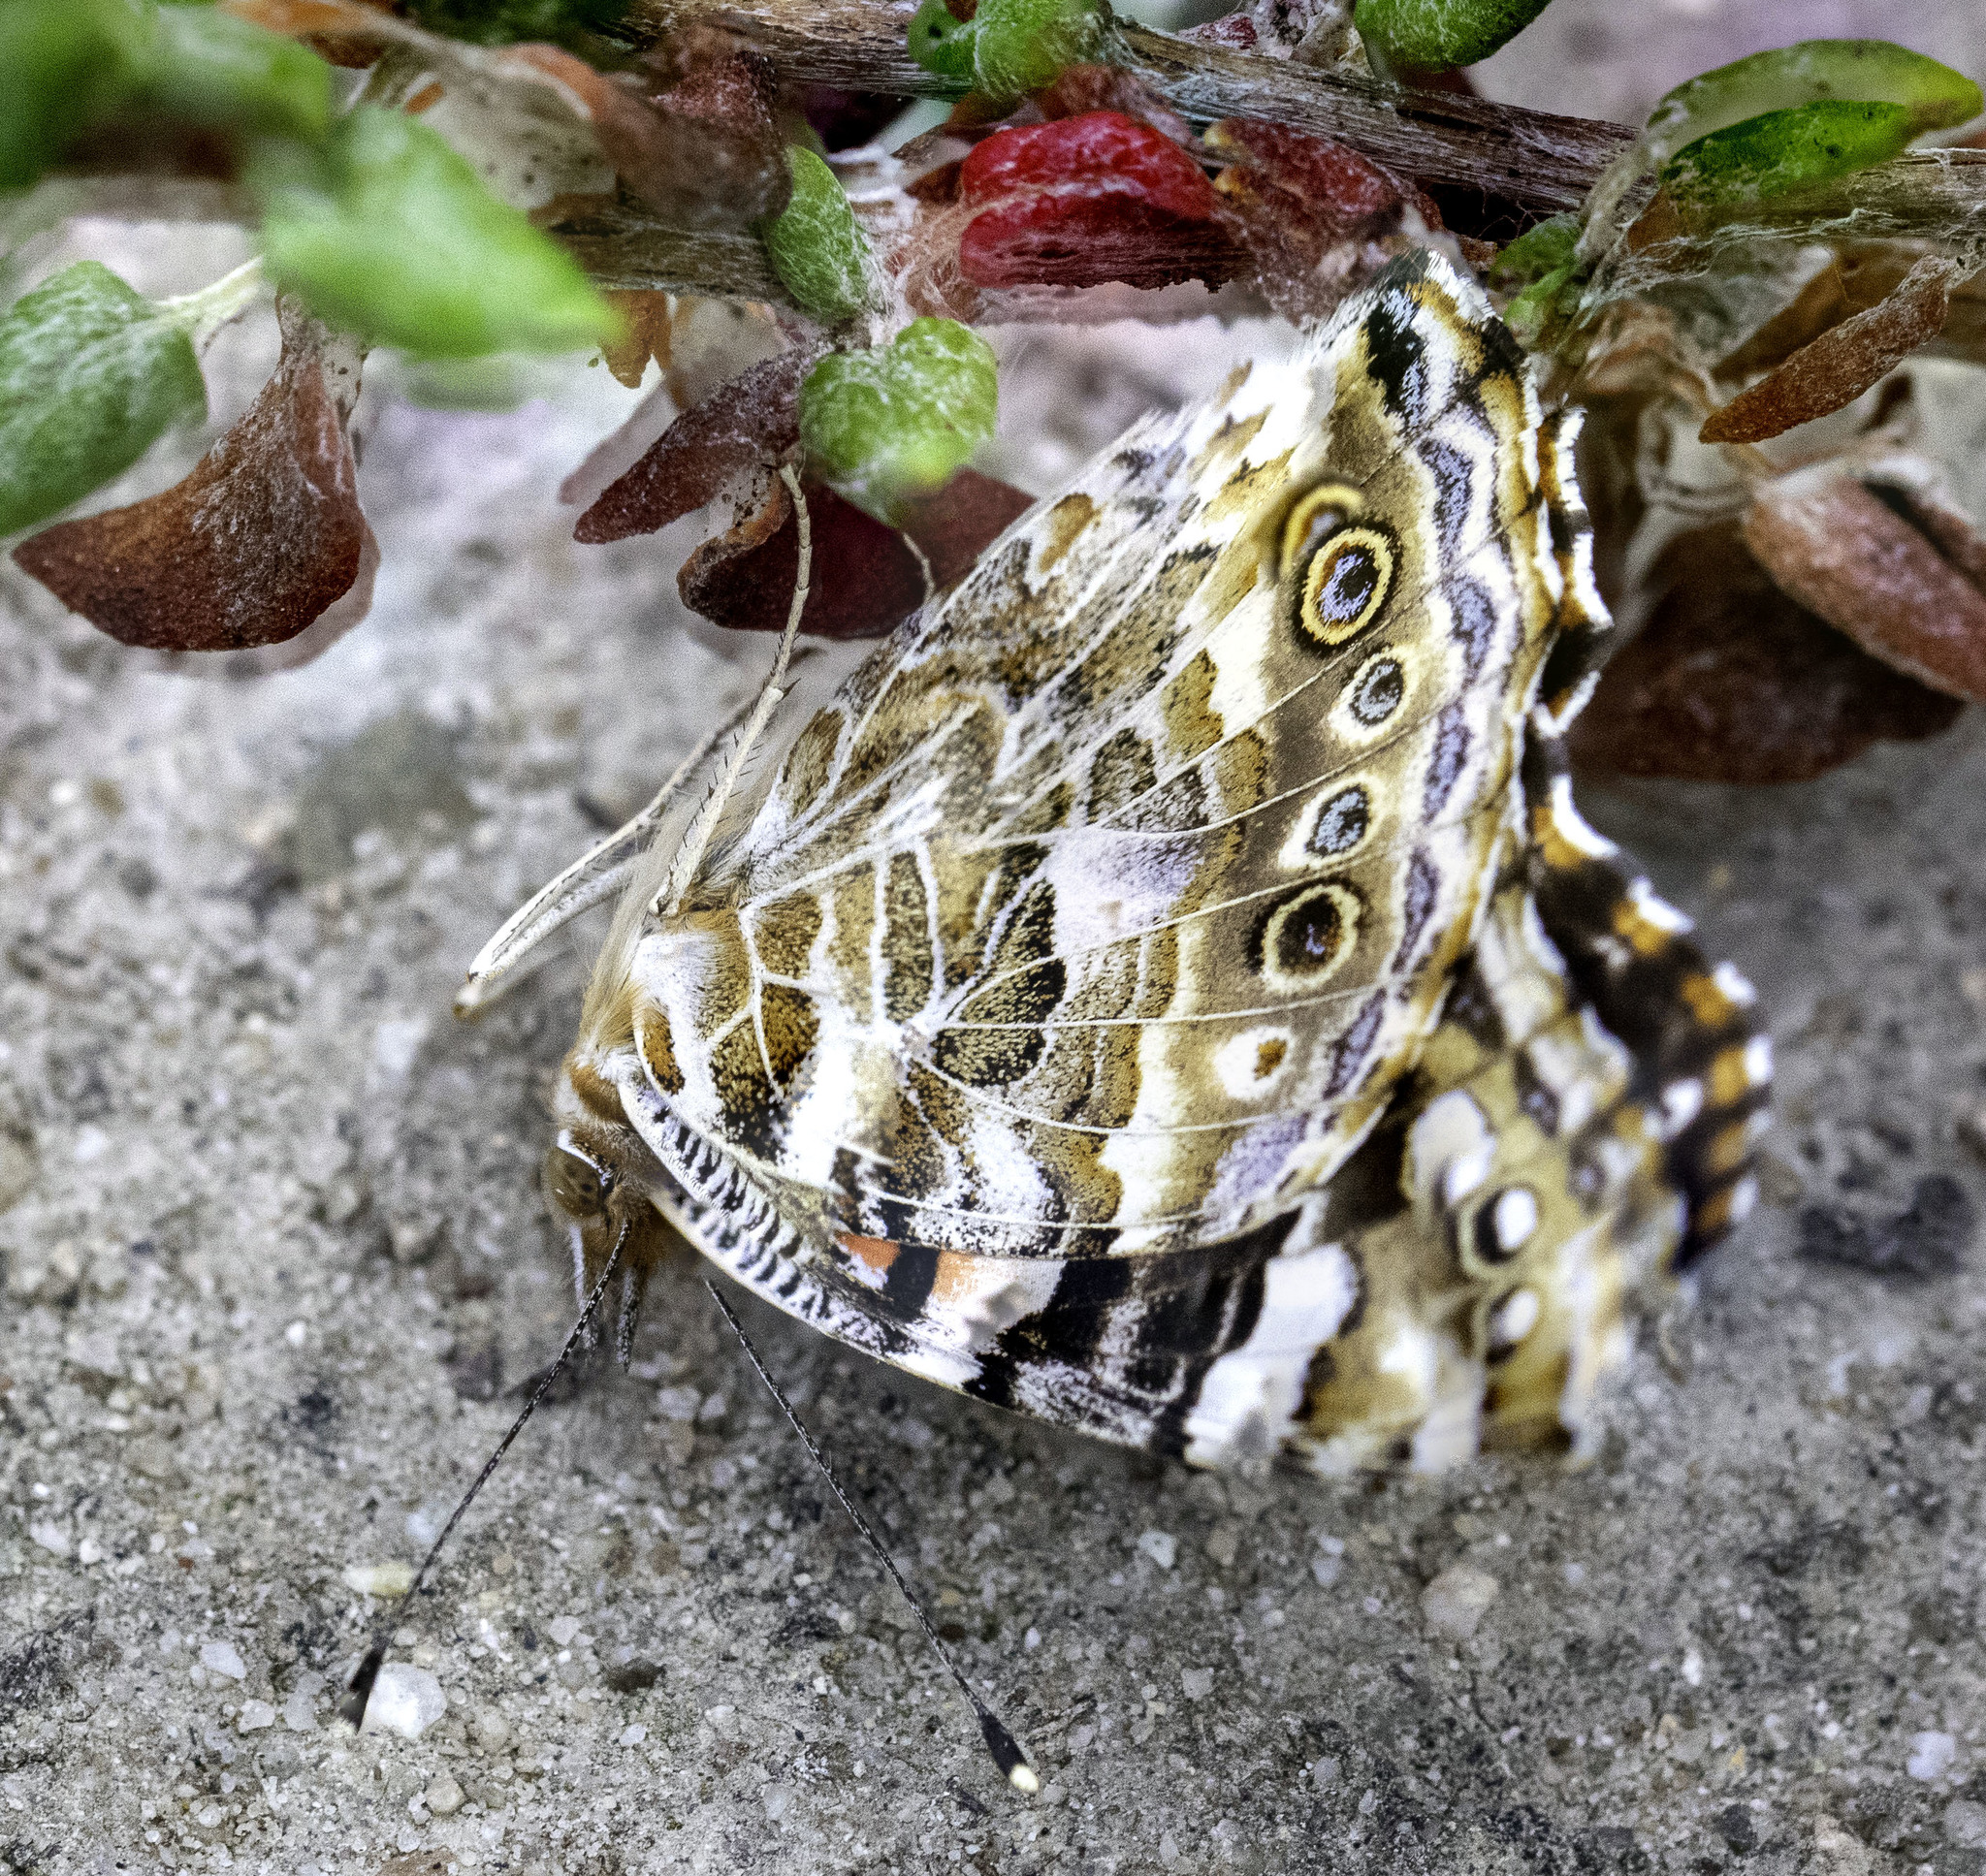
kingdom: Animalia
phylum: Arthropoda
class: Insecta
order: Lepidoptera
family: Nymphalidae
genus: Vanessa
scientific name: Vanessa cardui
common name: Painted lady
